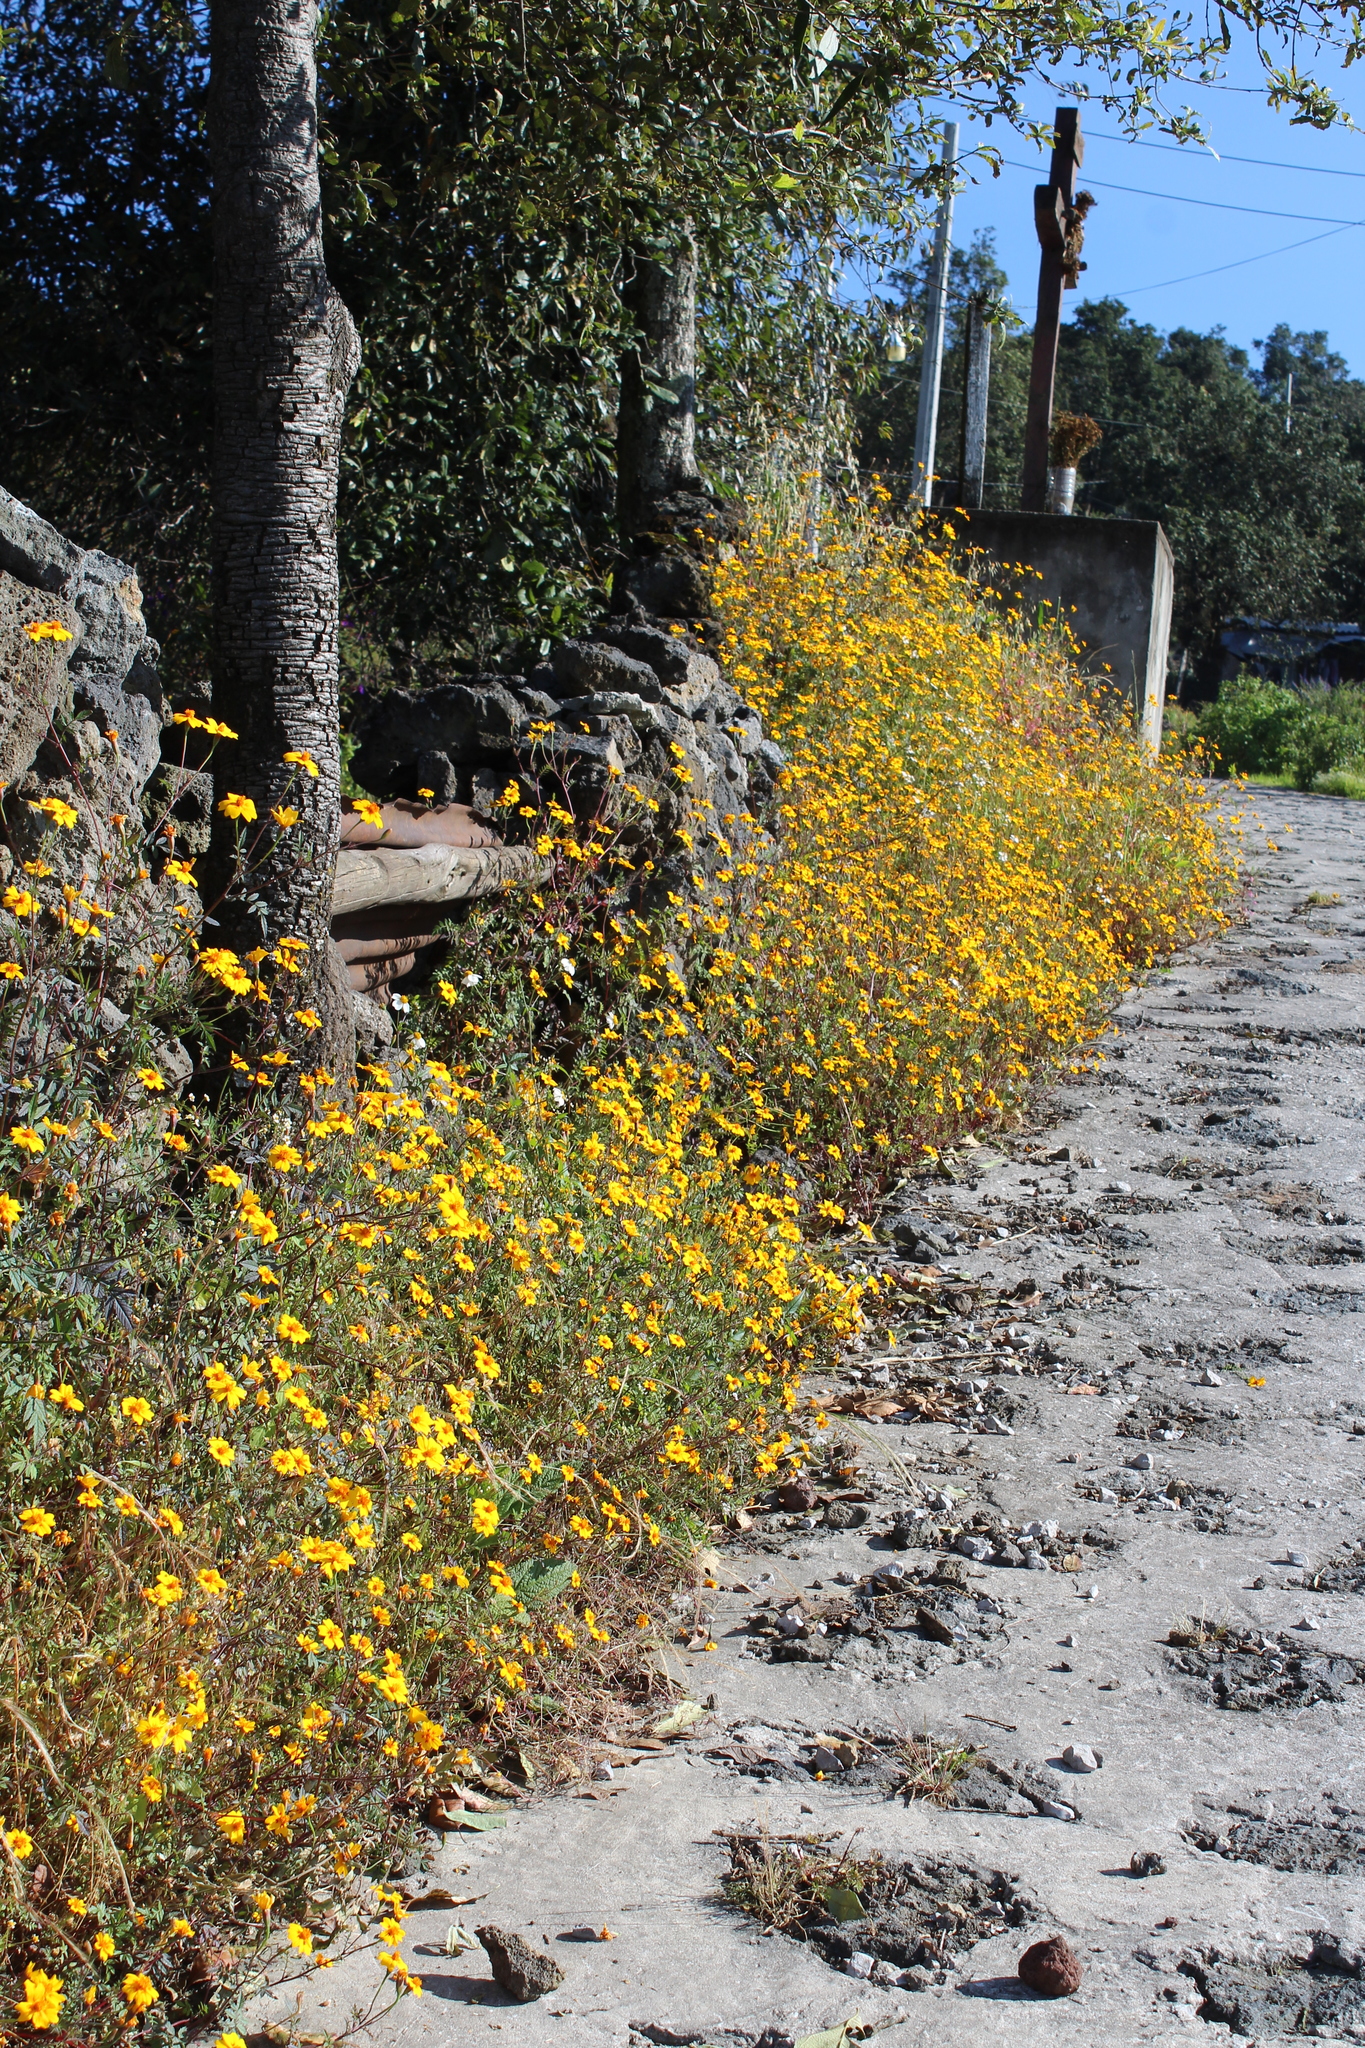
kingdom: Plantae
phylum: Tracheophyta
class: Magnoliopsida
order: Asterales
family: Asteraceae
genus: Tagetes
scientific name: Tagetes lunulata
